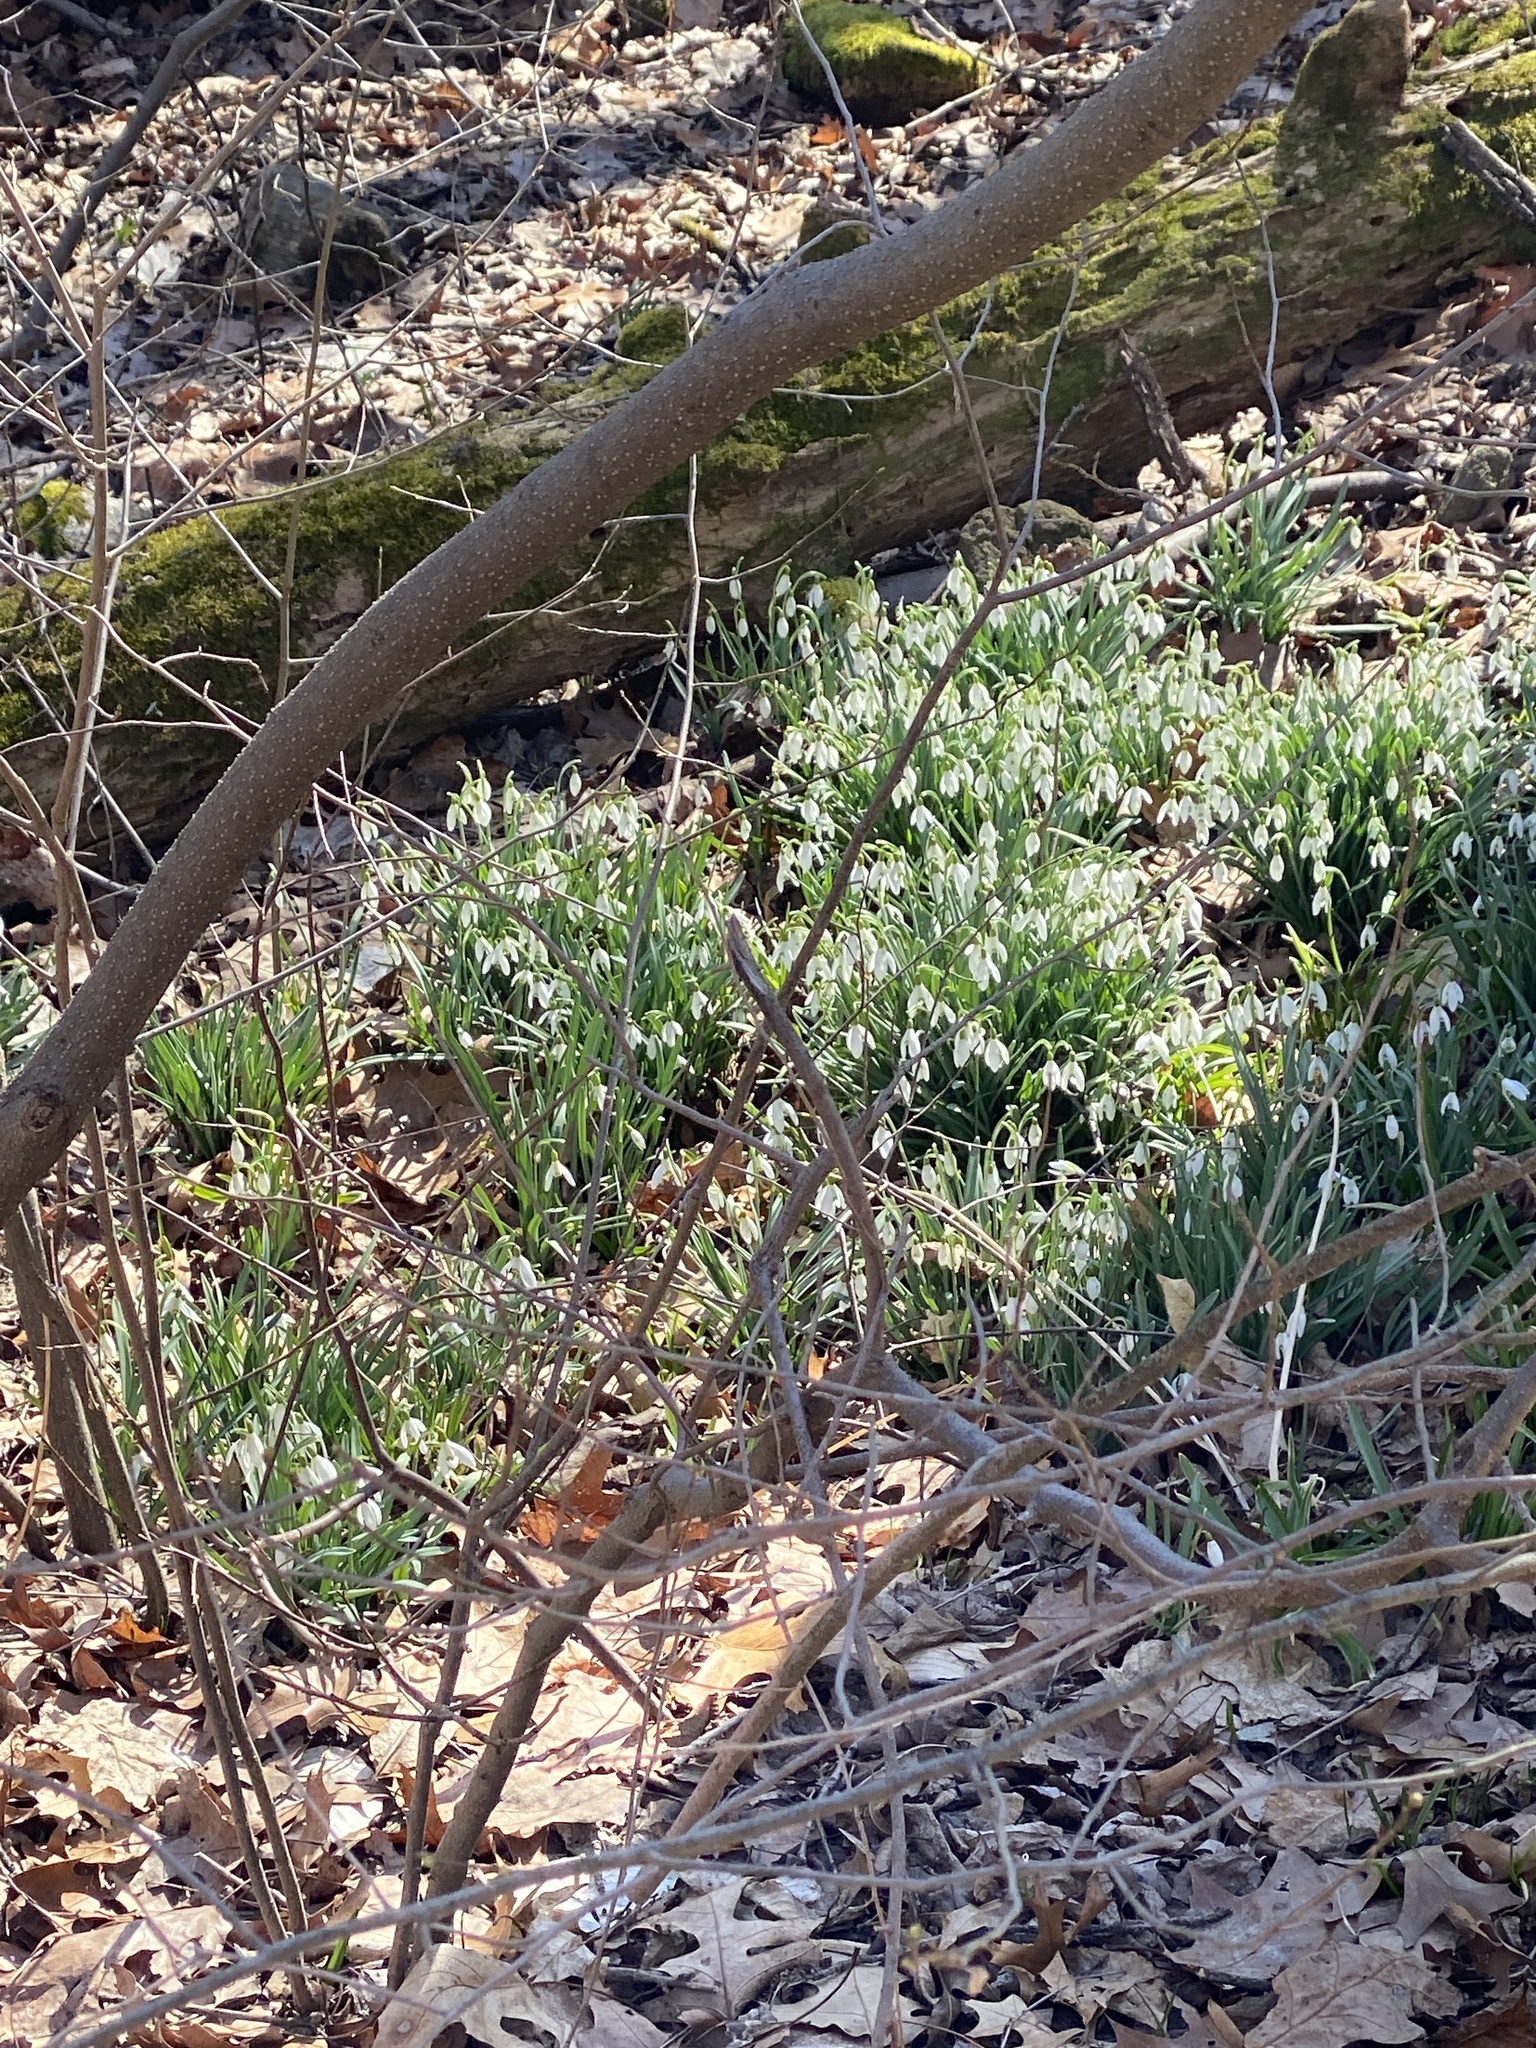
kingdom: Plantae
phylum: Tracheophyta
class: Liliopsida
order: Asparagales
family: Amaryllidaceae
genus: Galanthus
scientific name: Galanthus nivalis
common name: Snowdrop
